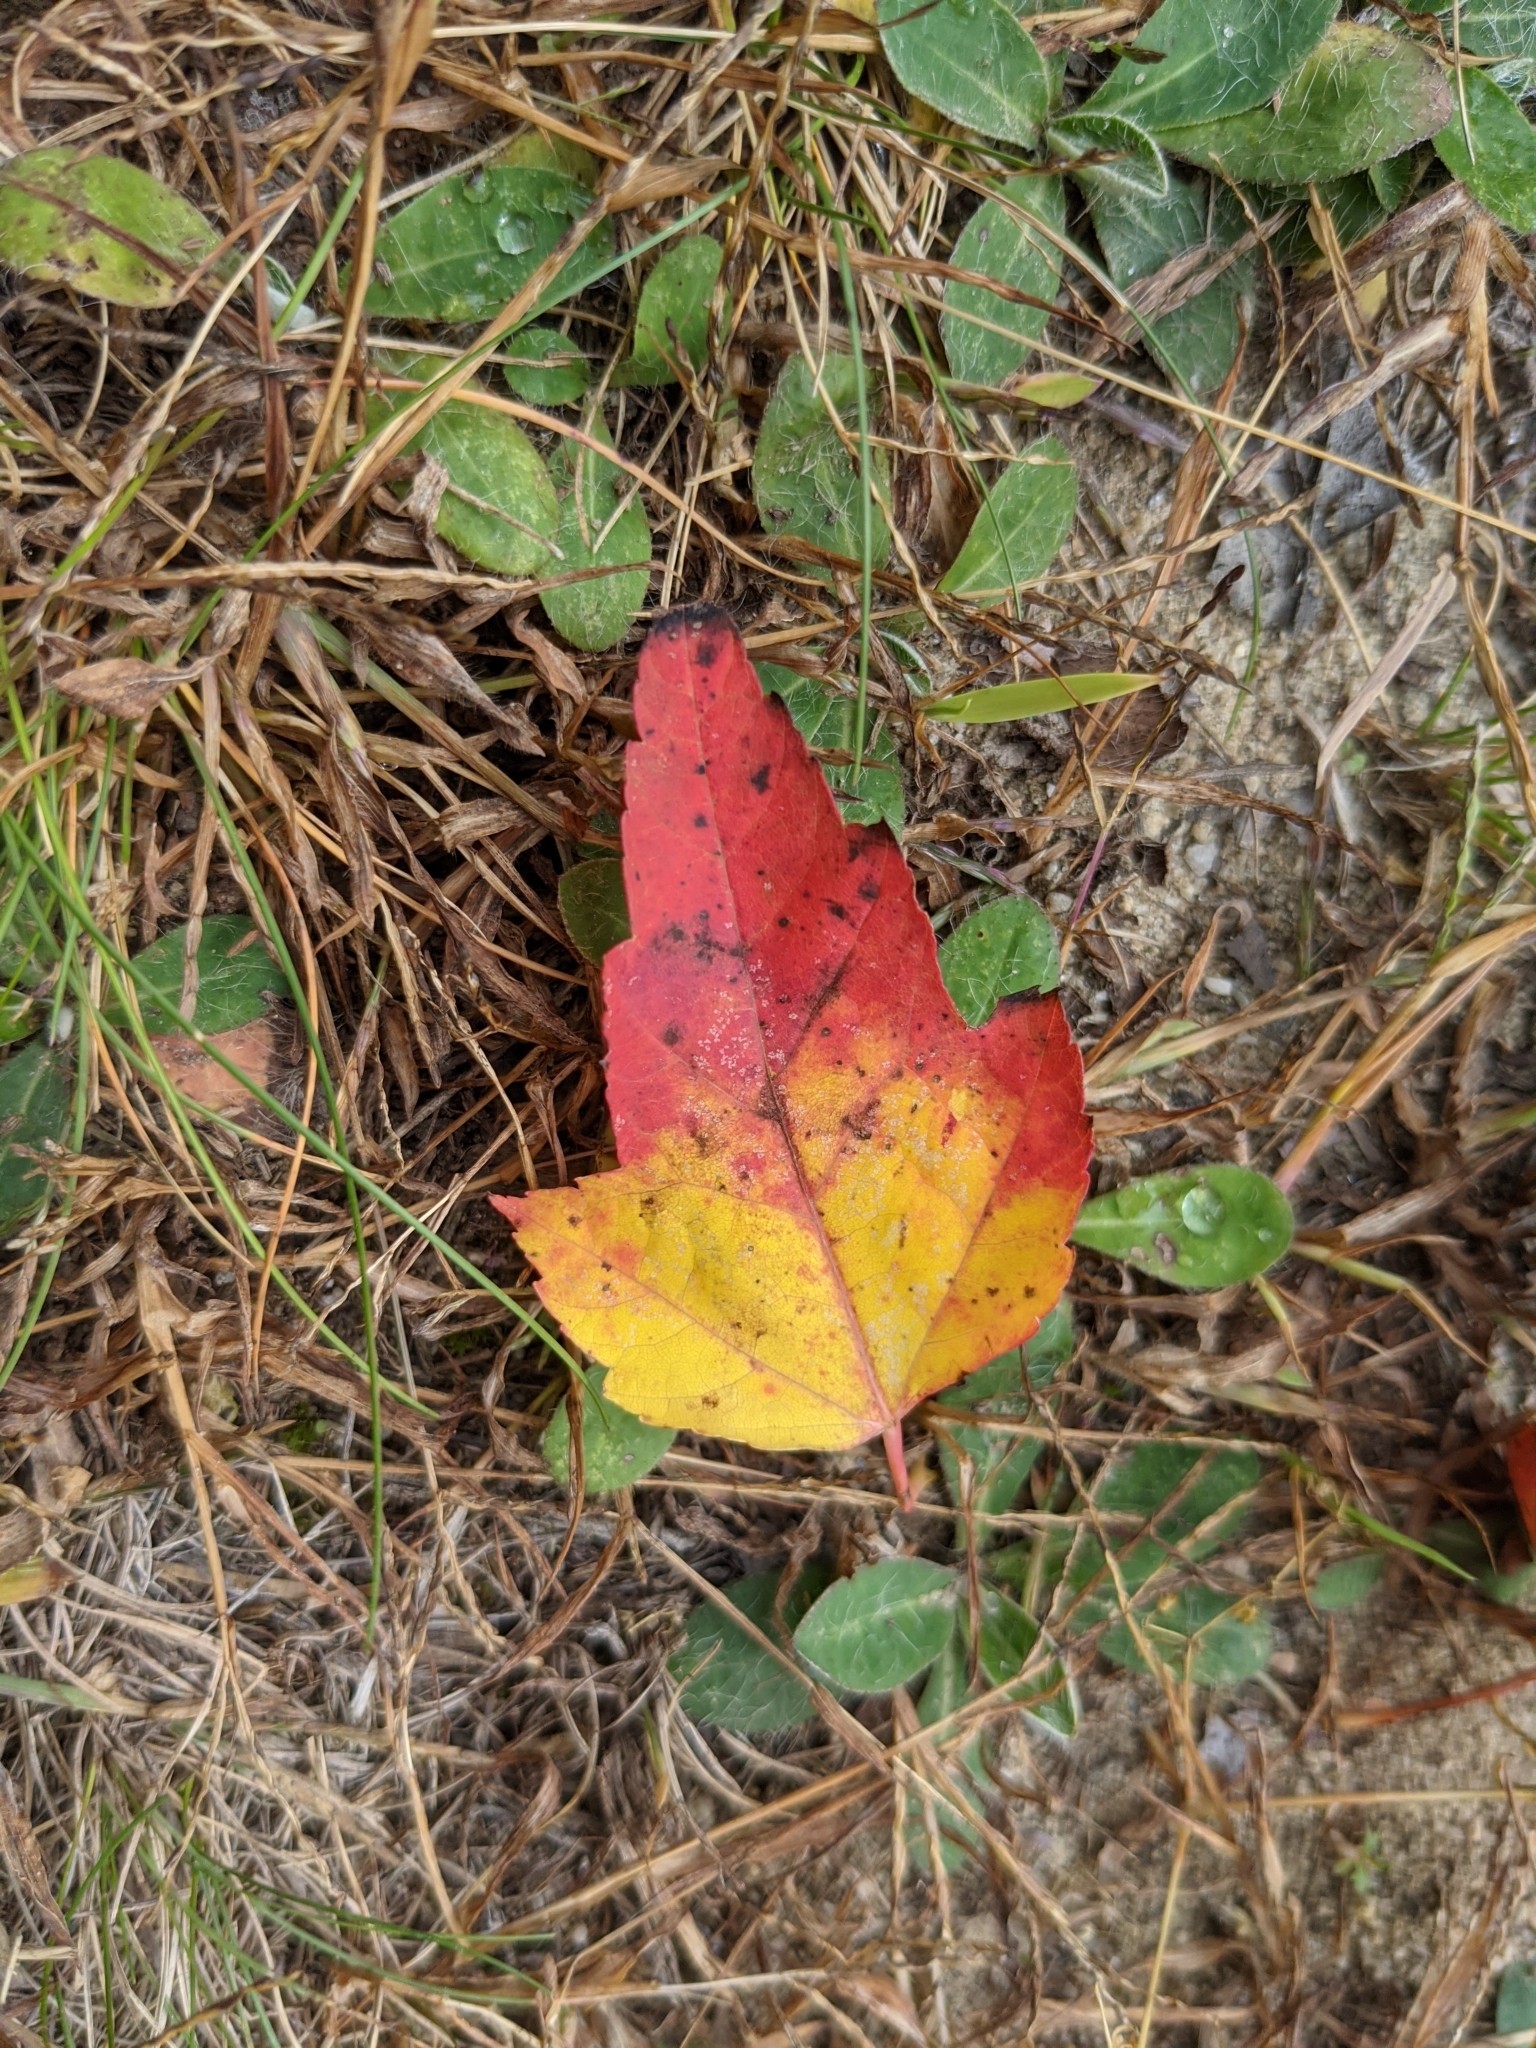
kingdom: Plantae
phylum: Tracheophyta
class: Magnoliopsida
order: Sapindales
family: Sapindaceae
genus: Acer
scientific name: Acer rubrum
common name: Red maple
